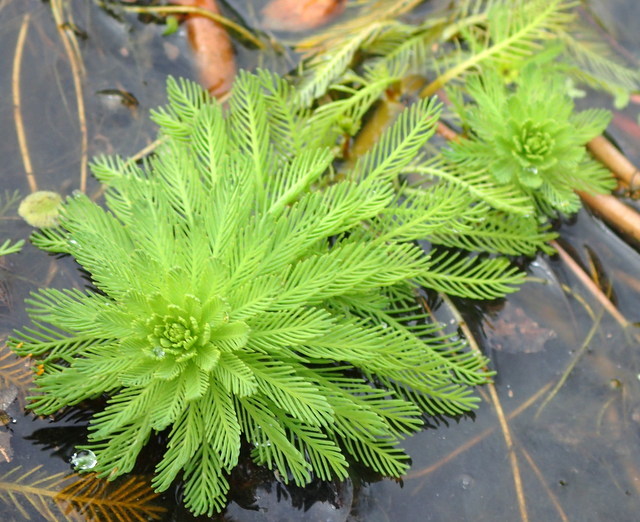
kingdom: Plantae
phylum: Tracheophyta
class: Magnoliopsida
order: Saxifragales
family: Haloragaceae
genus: Myriophyllum
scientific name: Myriophyllum aquaticum
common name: Parrot's feather
